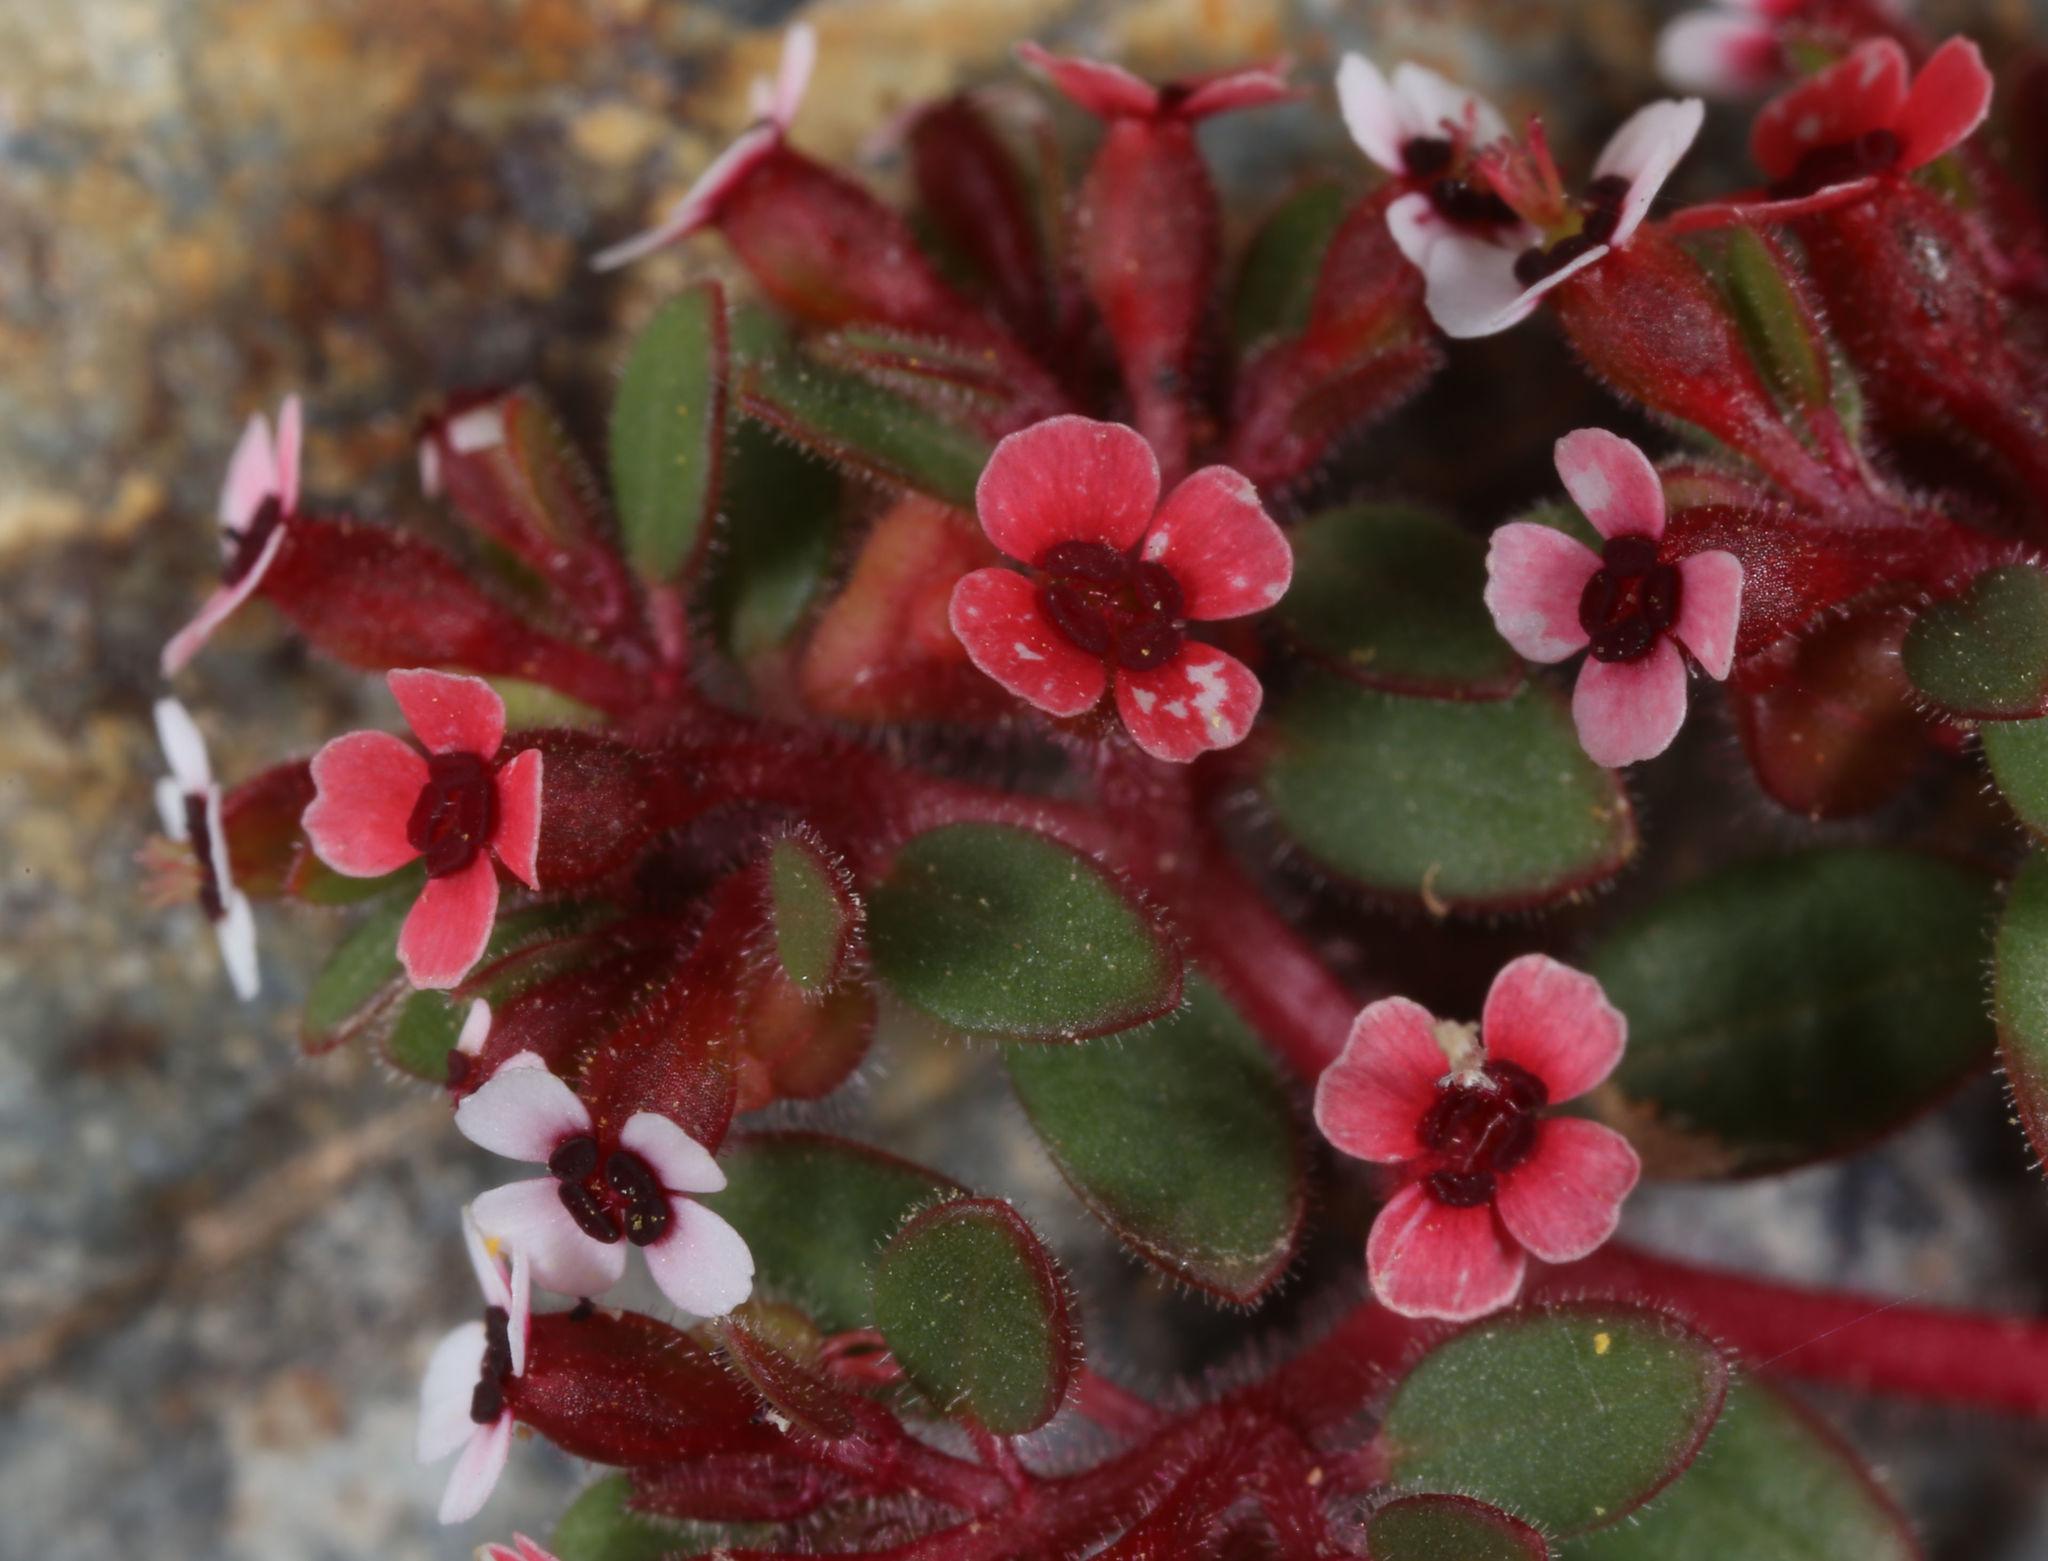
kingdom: Plantae
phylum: Tracheophyta
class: Magnoliopsida
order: Malpighiales
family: Euphorbiaceae
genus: Euphorbia
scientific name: Euphorbia arizonica
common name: Arizona spurge
